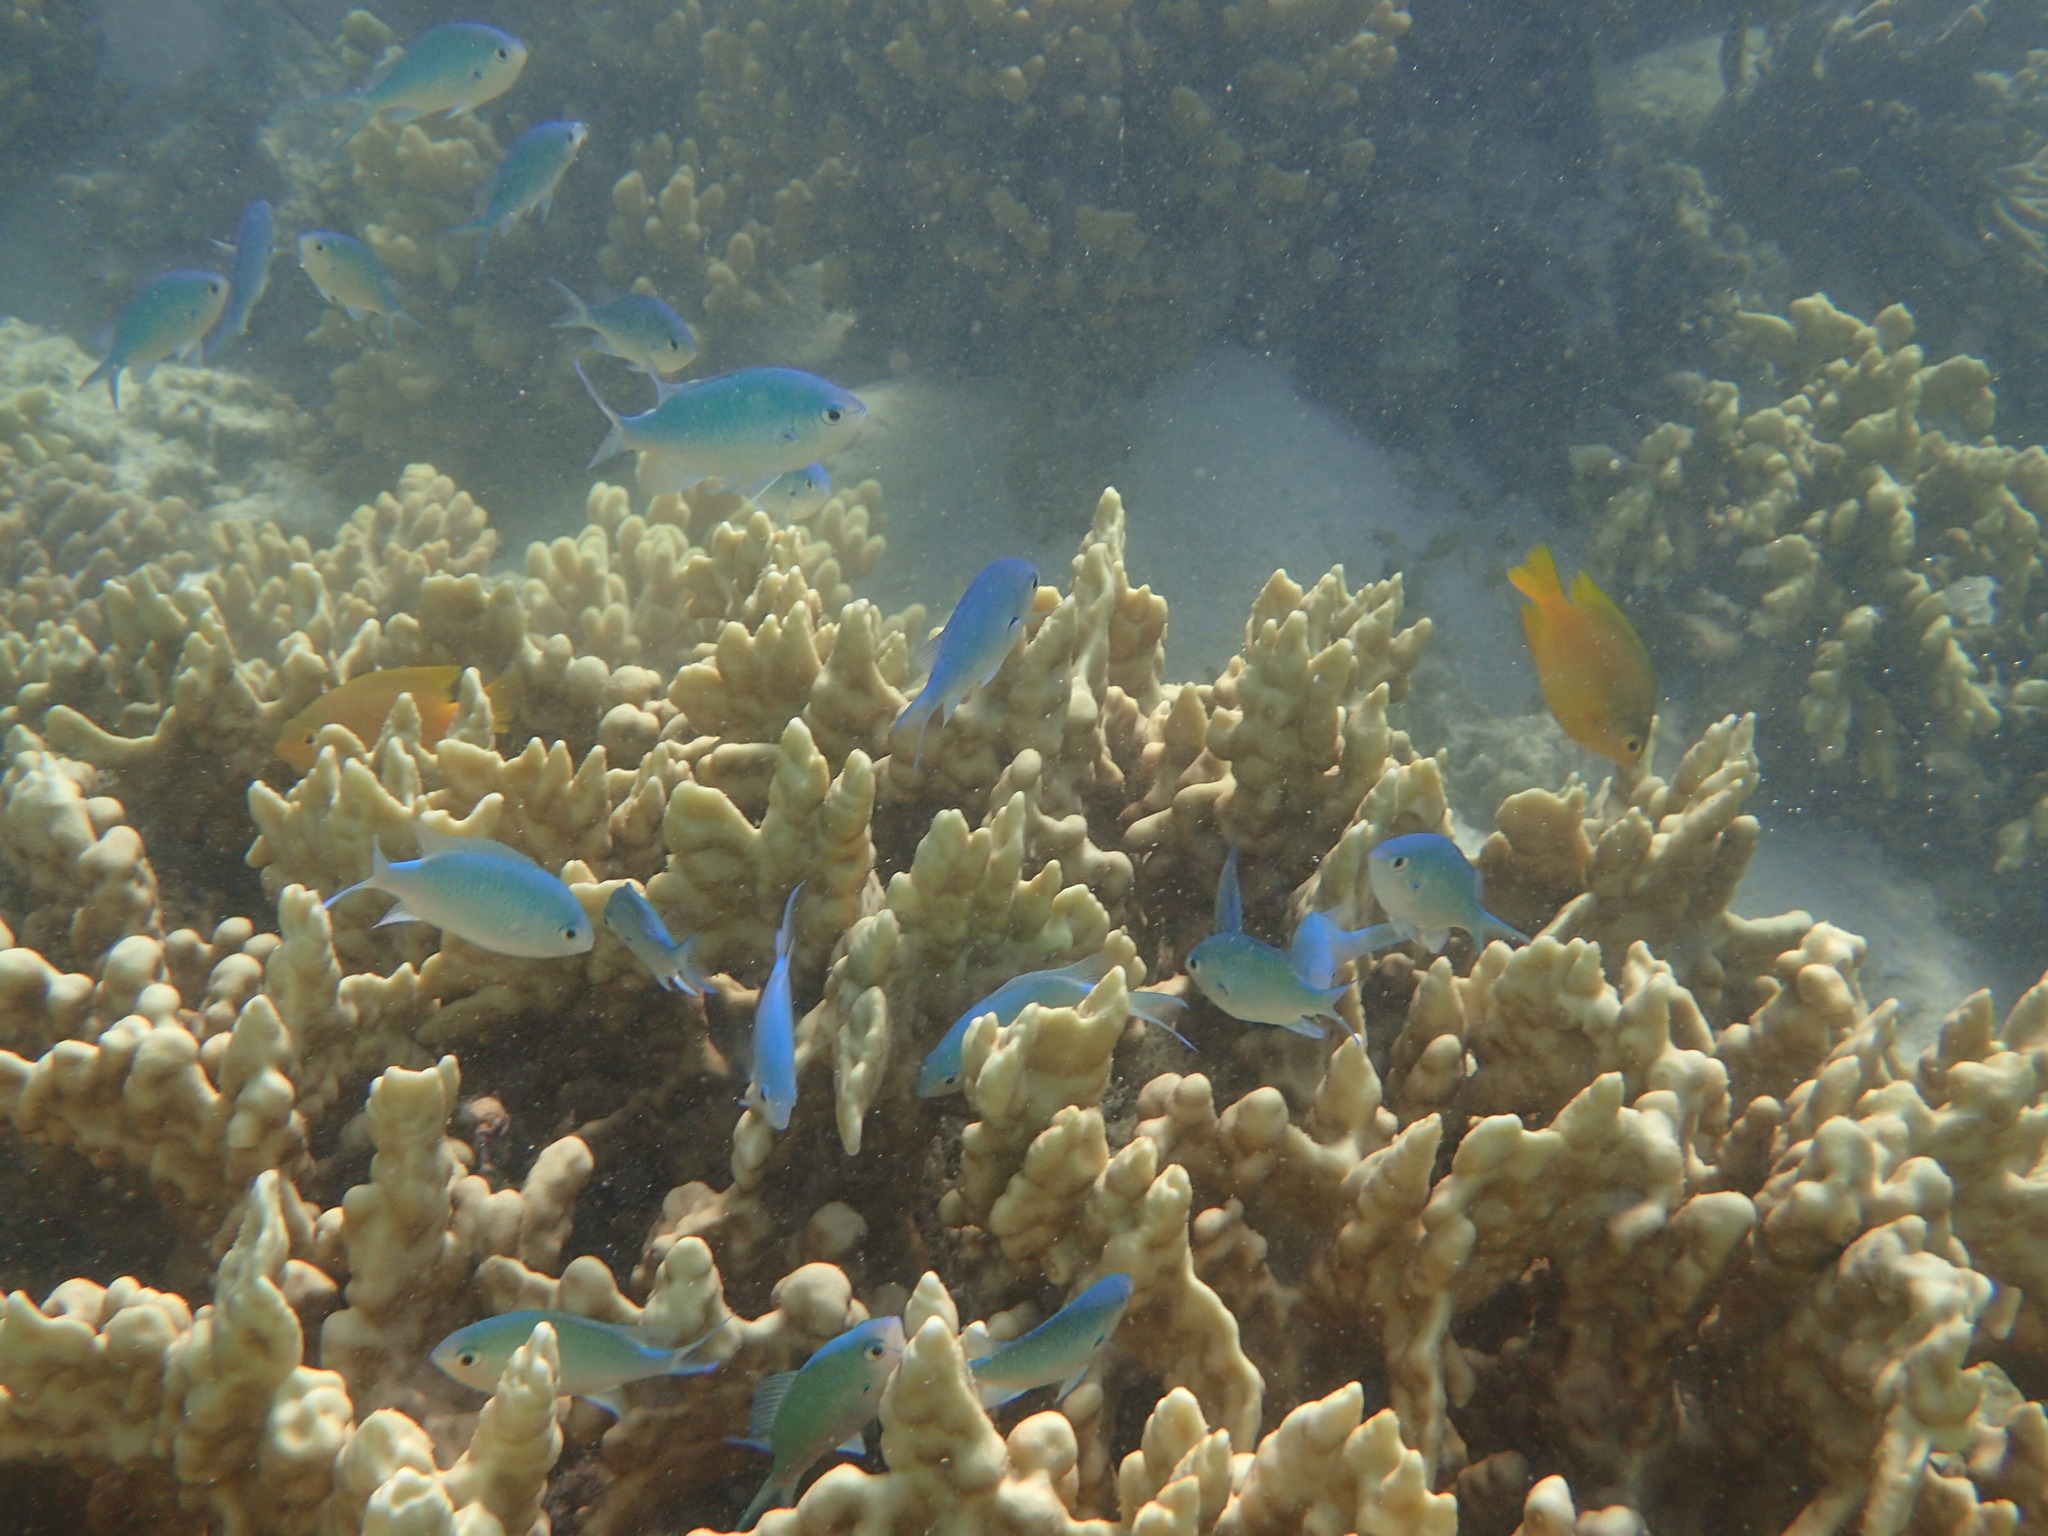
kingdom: Animalia
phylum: Chordata
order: Perciformes
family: Pomacentridae
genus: Chromis
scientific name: Chromis viridis
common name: Blue-green chromis
